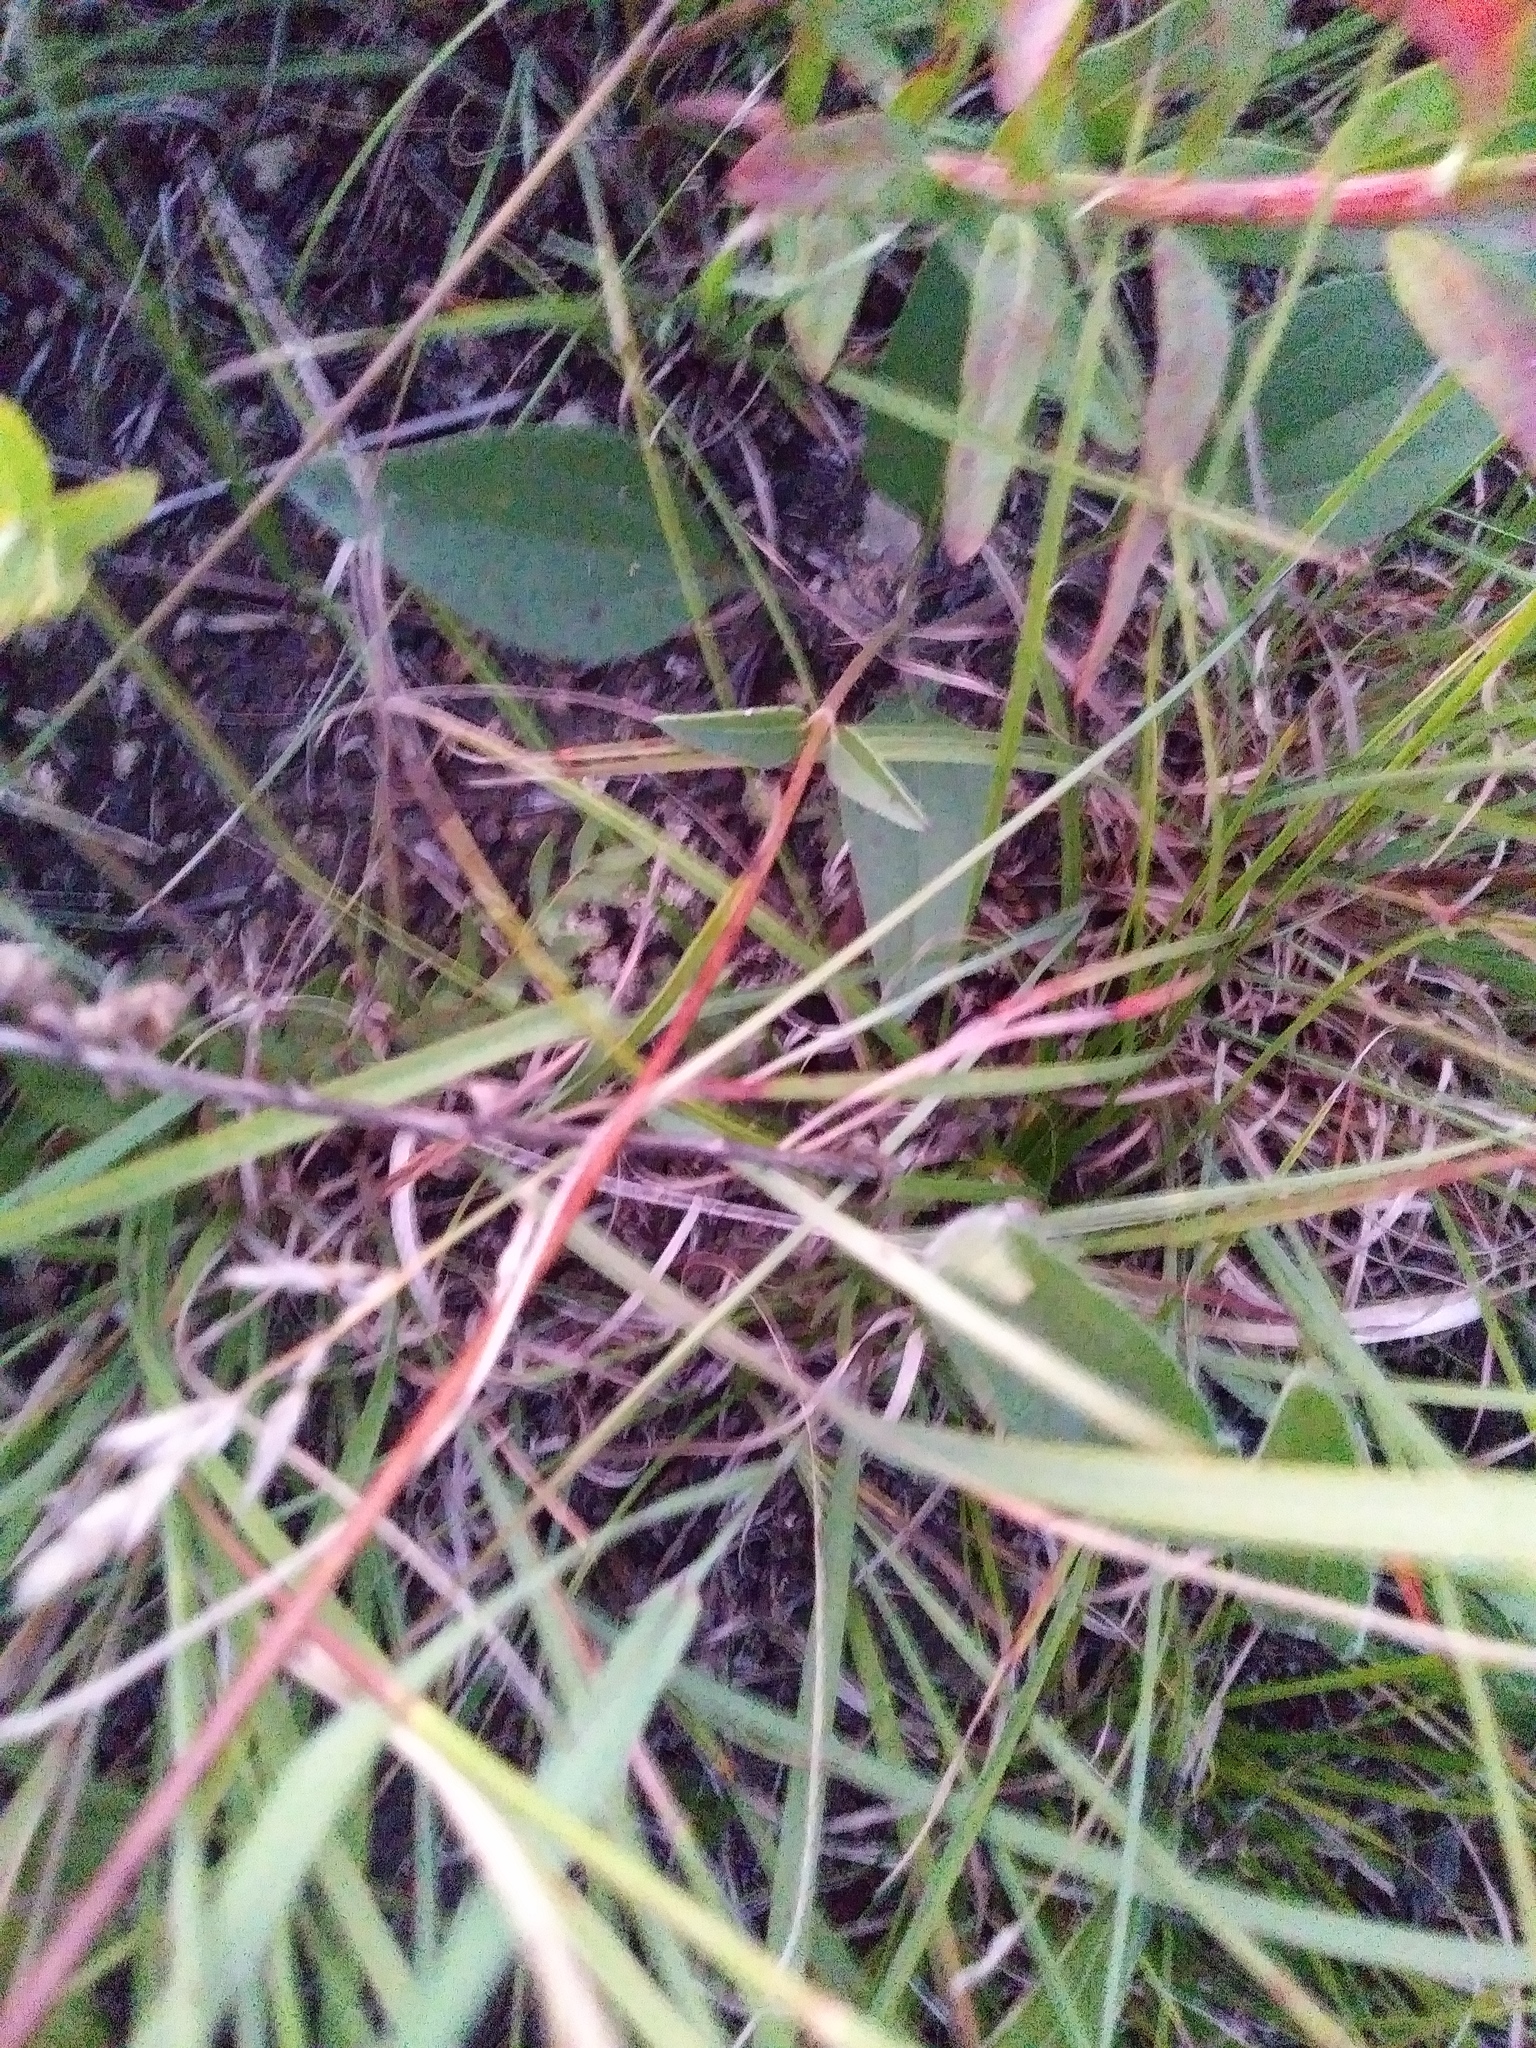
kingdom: Plantae
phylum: Tracheophyta
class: Magnoliopsida
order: Asterales
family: Asteraceae
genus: Helianthus
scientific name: Helianthus occidentalis
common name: Western sunflower
